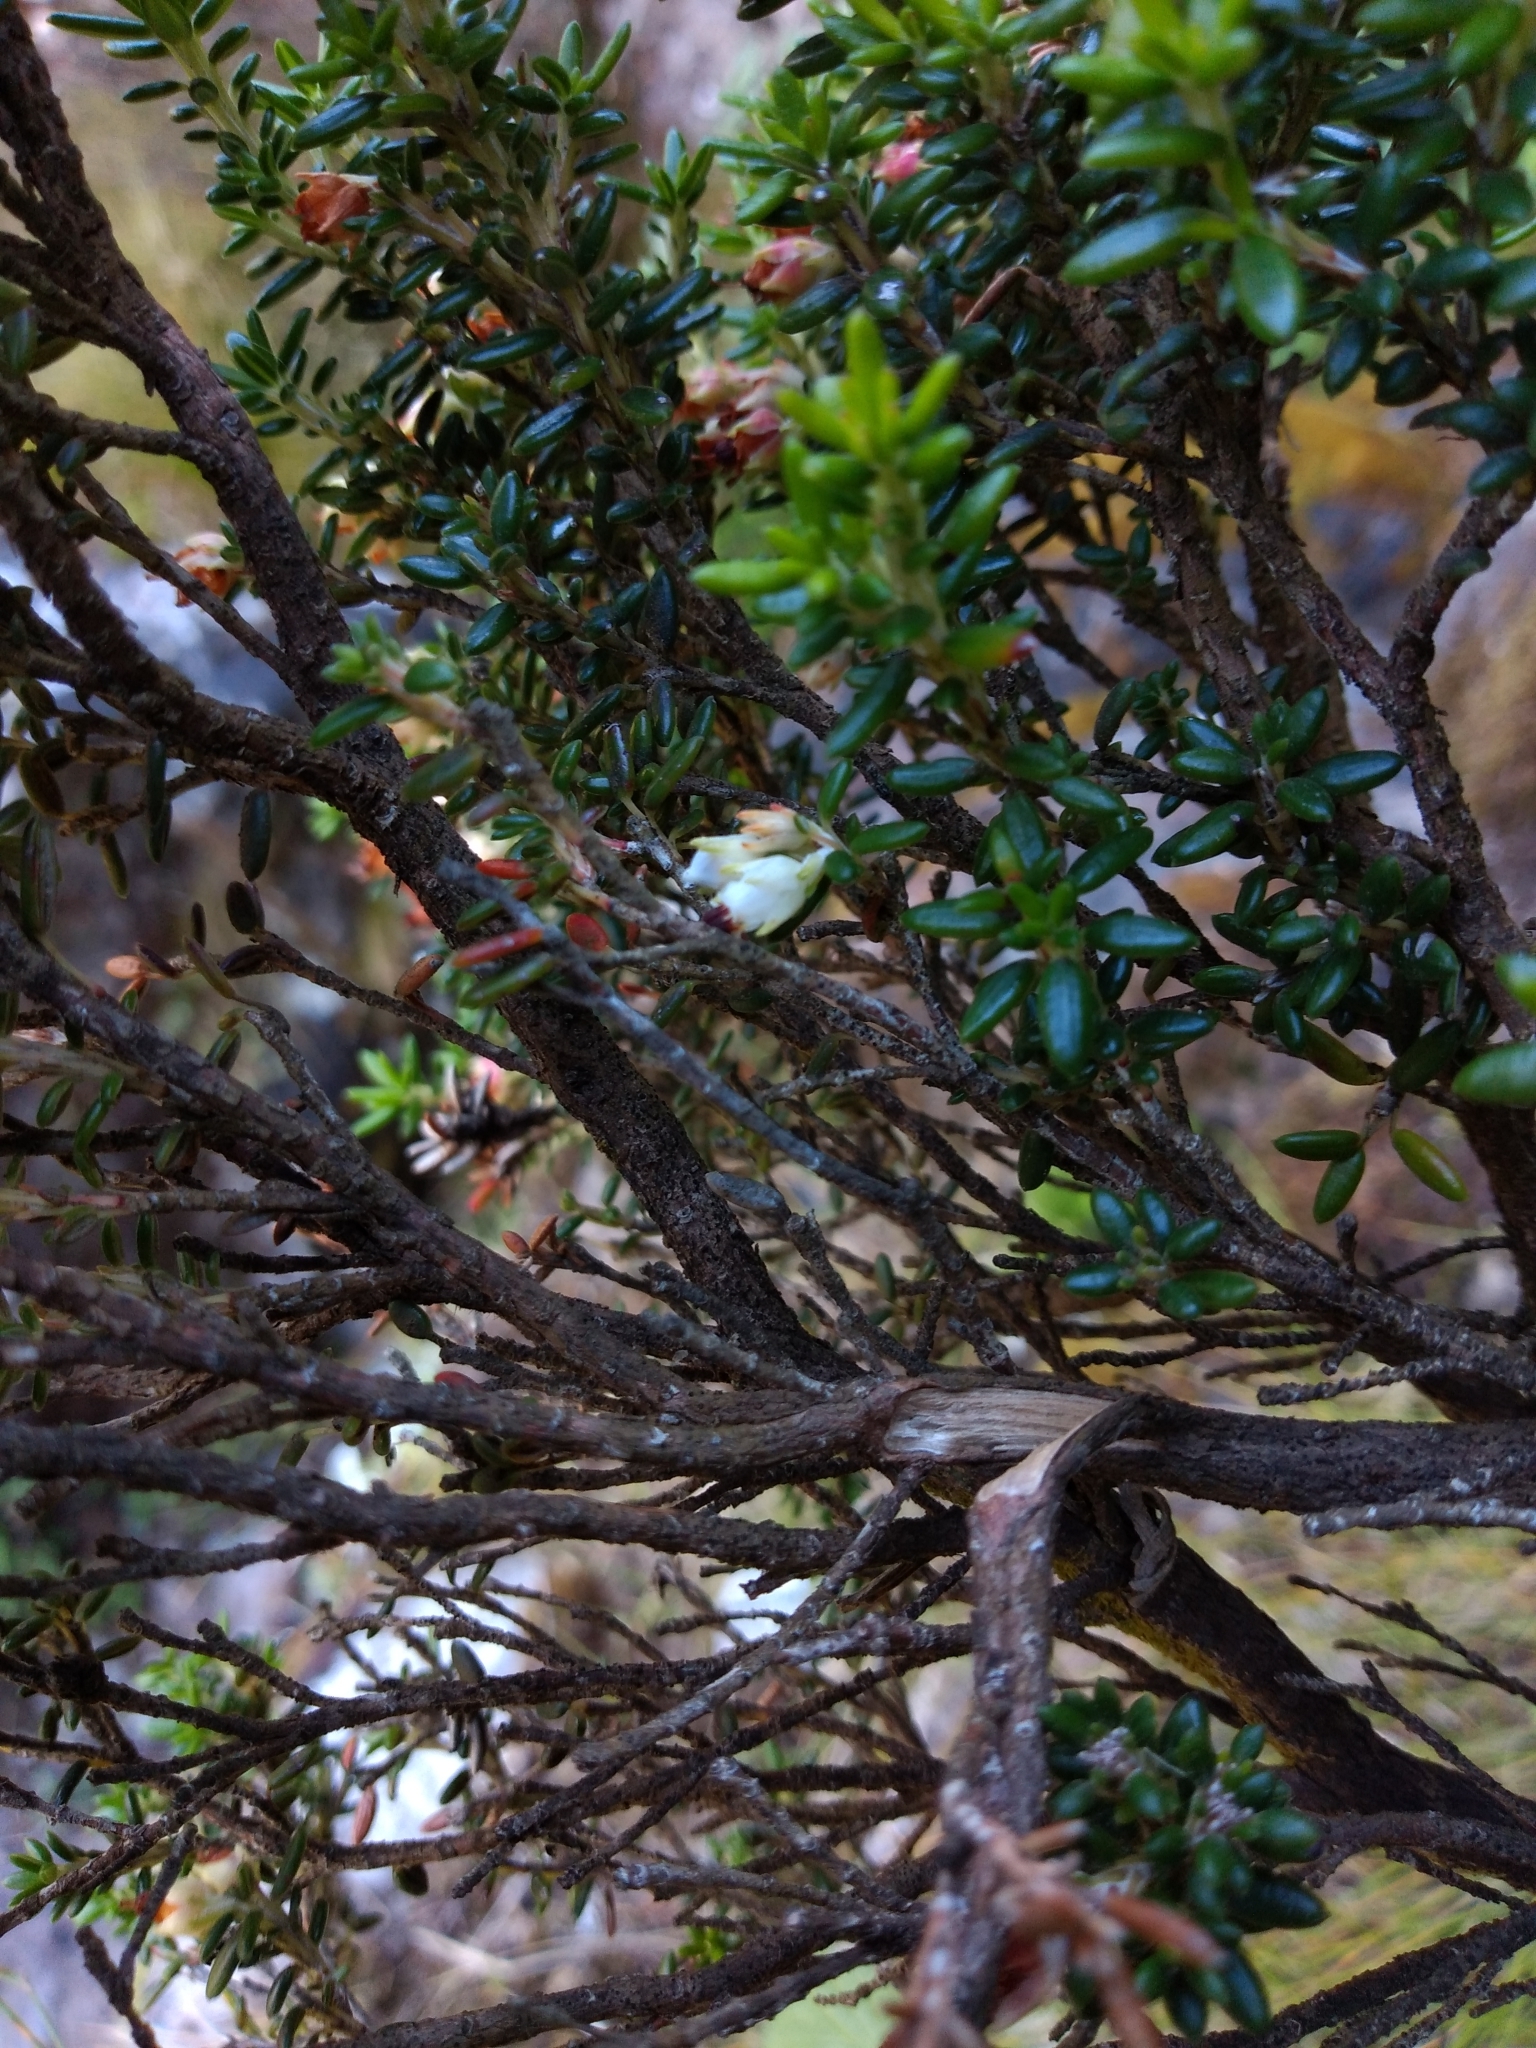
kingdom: Plantae
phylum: Tracheophyta
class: Magnoliopsida
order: Ericales
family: Ericaceae
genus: Erica
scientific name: Erica petiolaris
